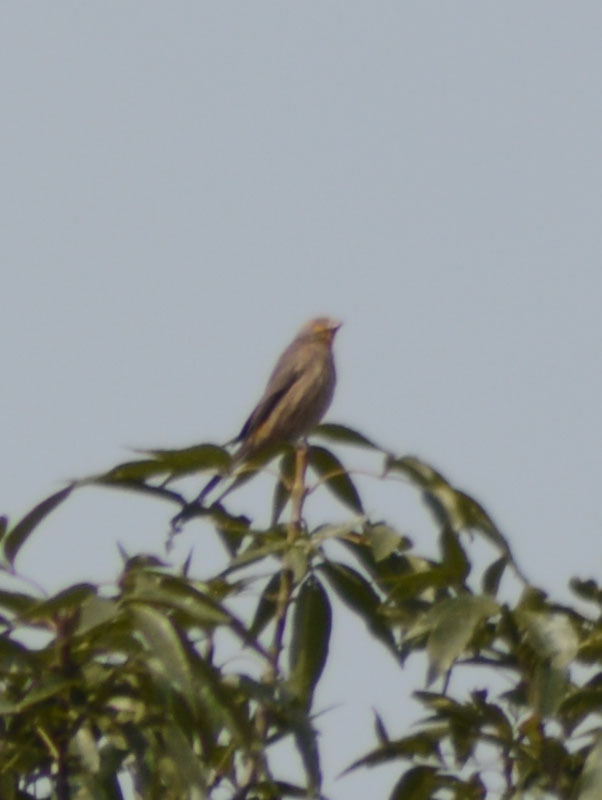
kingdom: Animalia
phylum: Chordata
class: Aves
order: Passeriformes
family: Fringillidae
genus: Haemorhous
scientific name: Haemorhous mexicanus
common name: House finch
